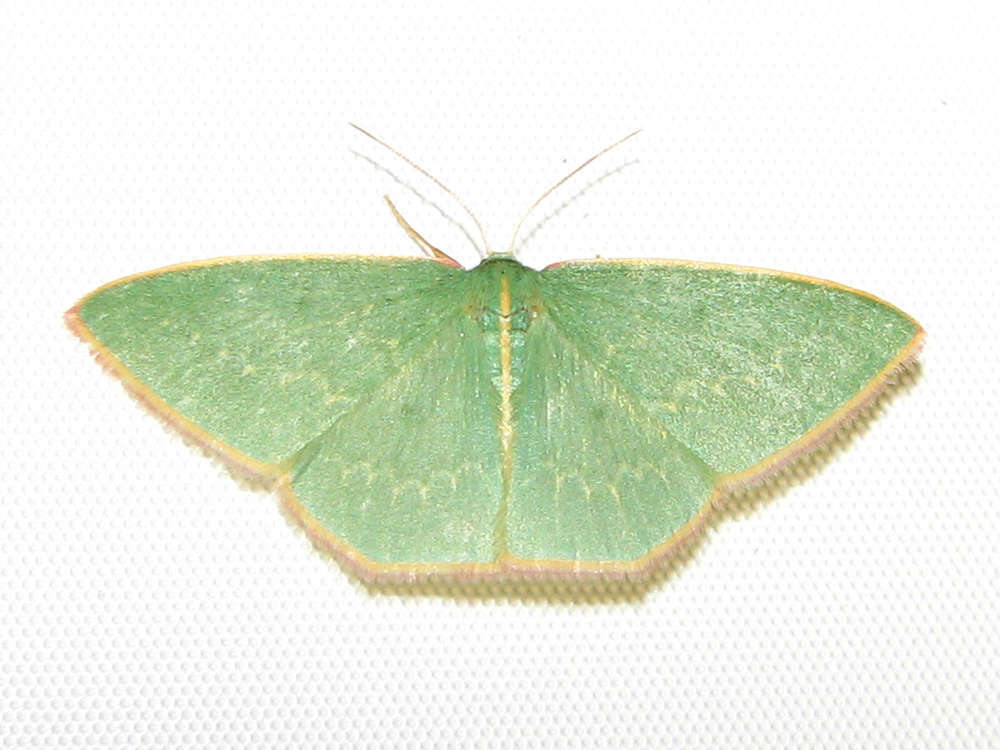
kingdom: Animalia
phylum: Arthropoda
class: Insecta
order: Lepidoptera
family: Geometridae
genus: Chlorocoma
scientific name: Chlorocoma dichloraria
